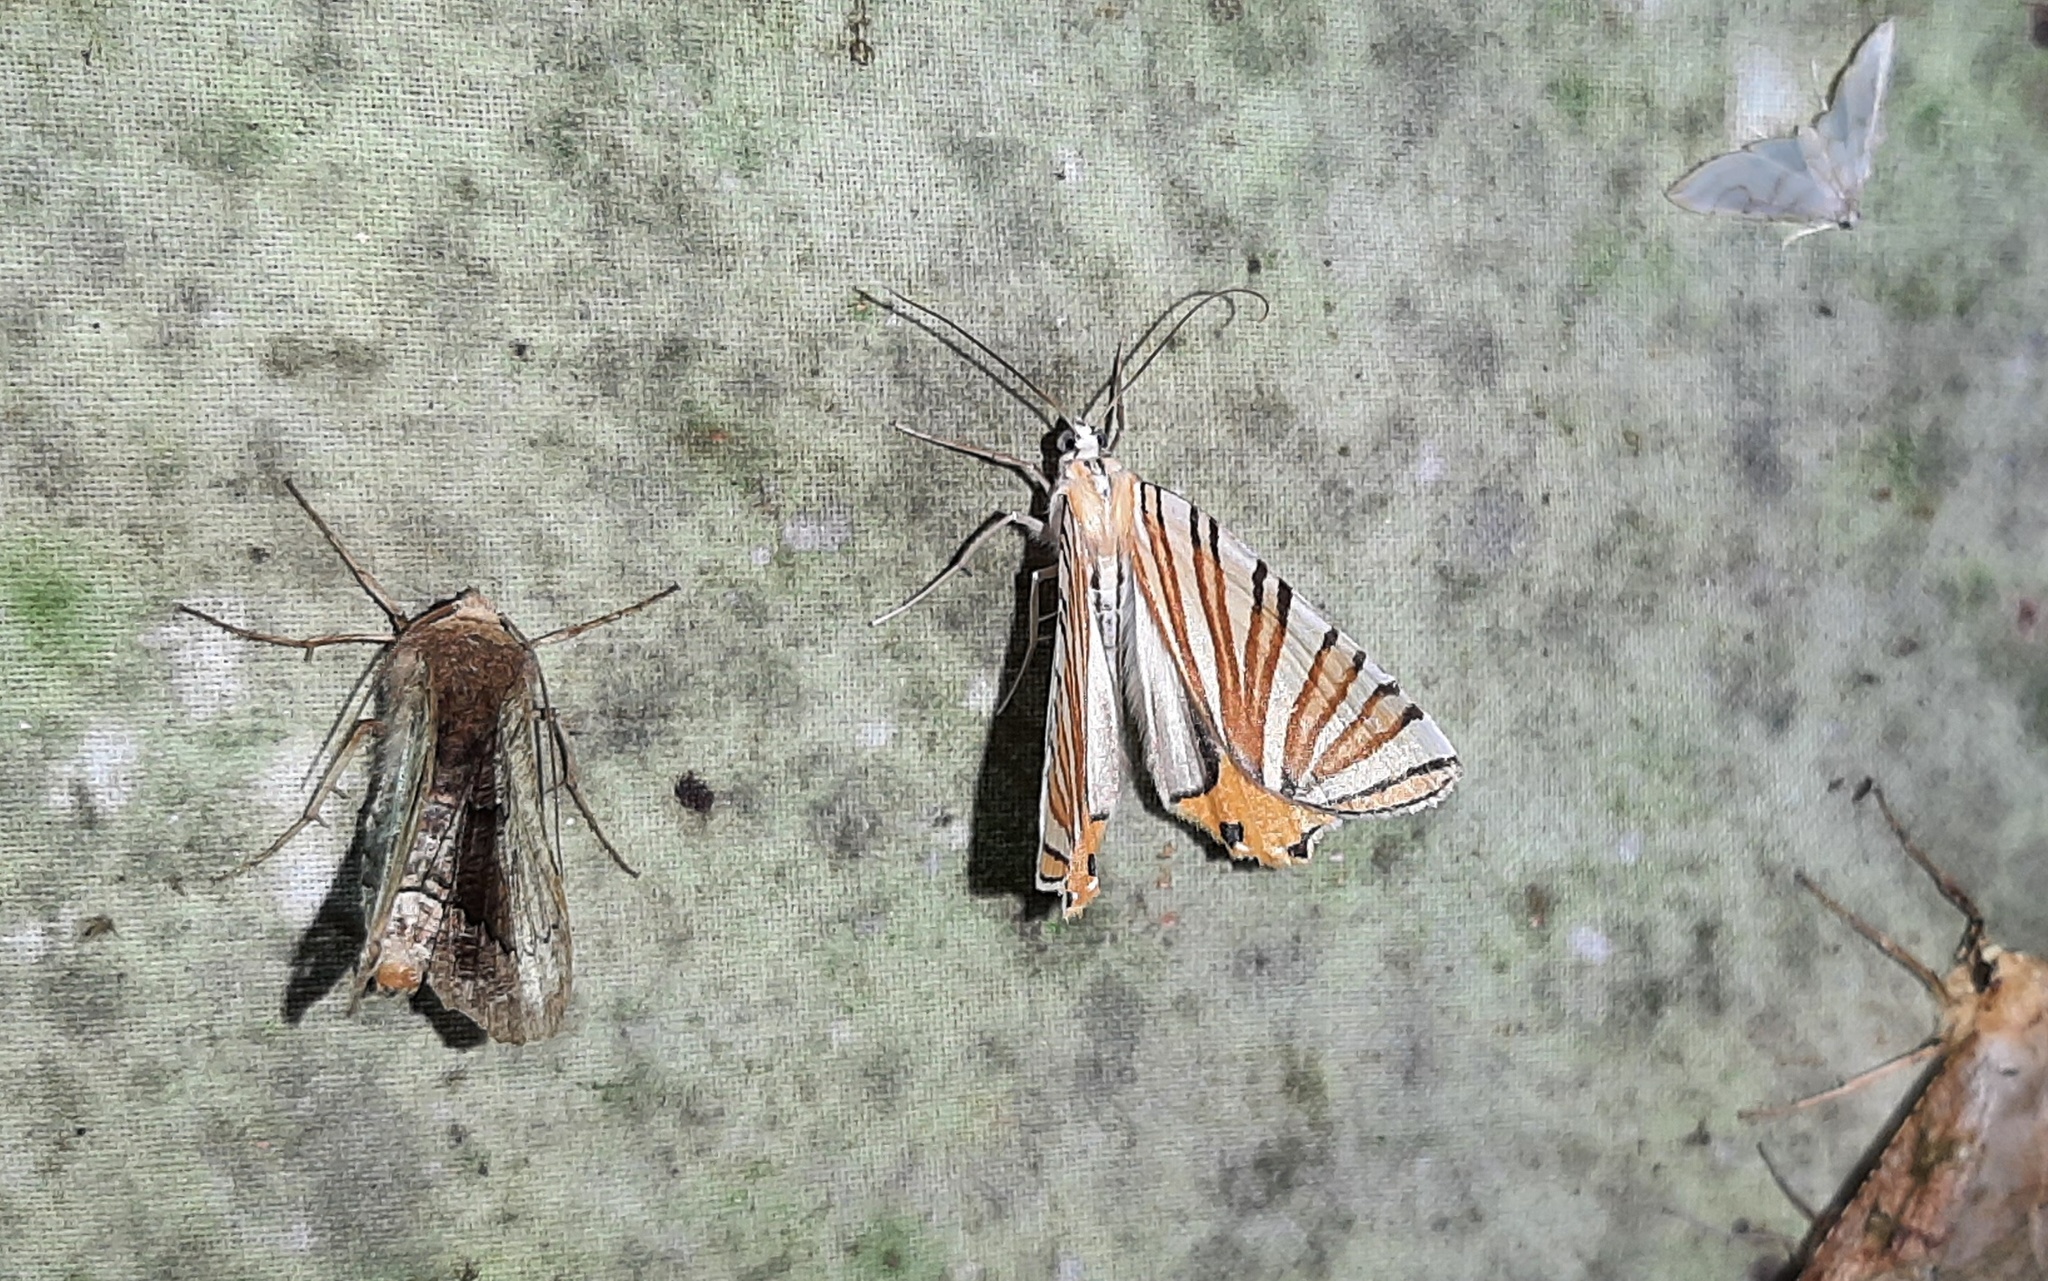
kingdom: Animalia
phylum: Arthropoda
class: Insecta
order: Lepidoptera
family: Geometridae
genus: Pityeja
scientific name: Pityeja histrionaria
